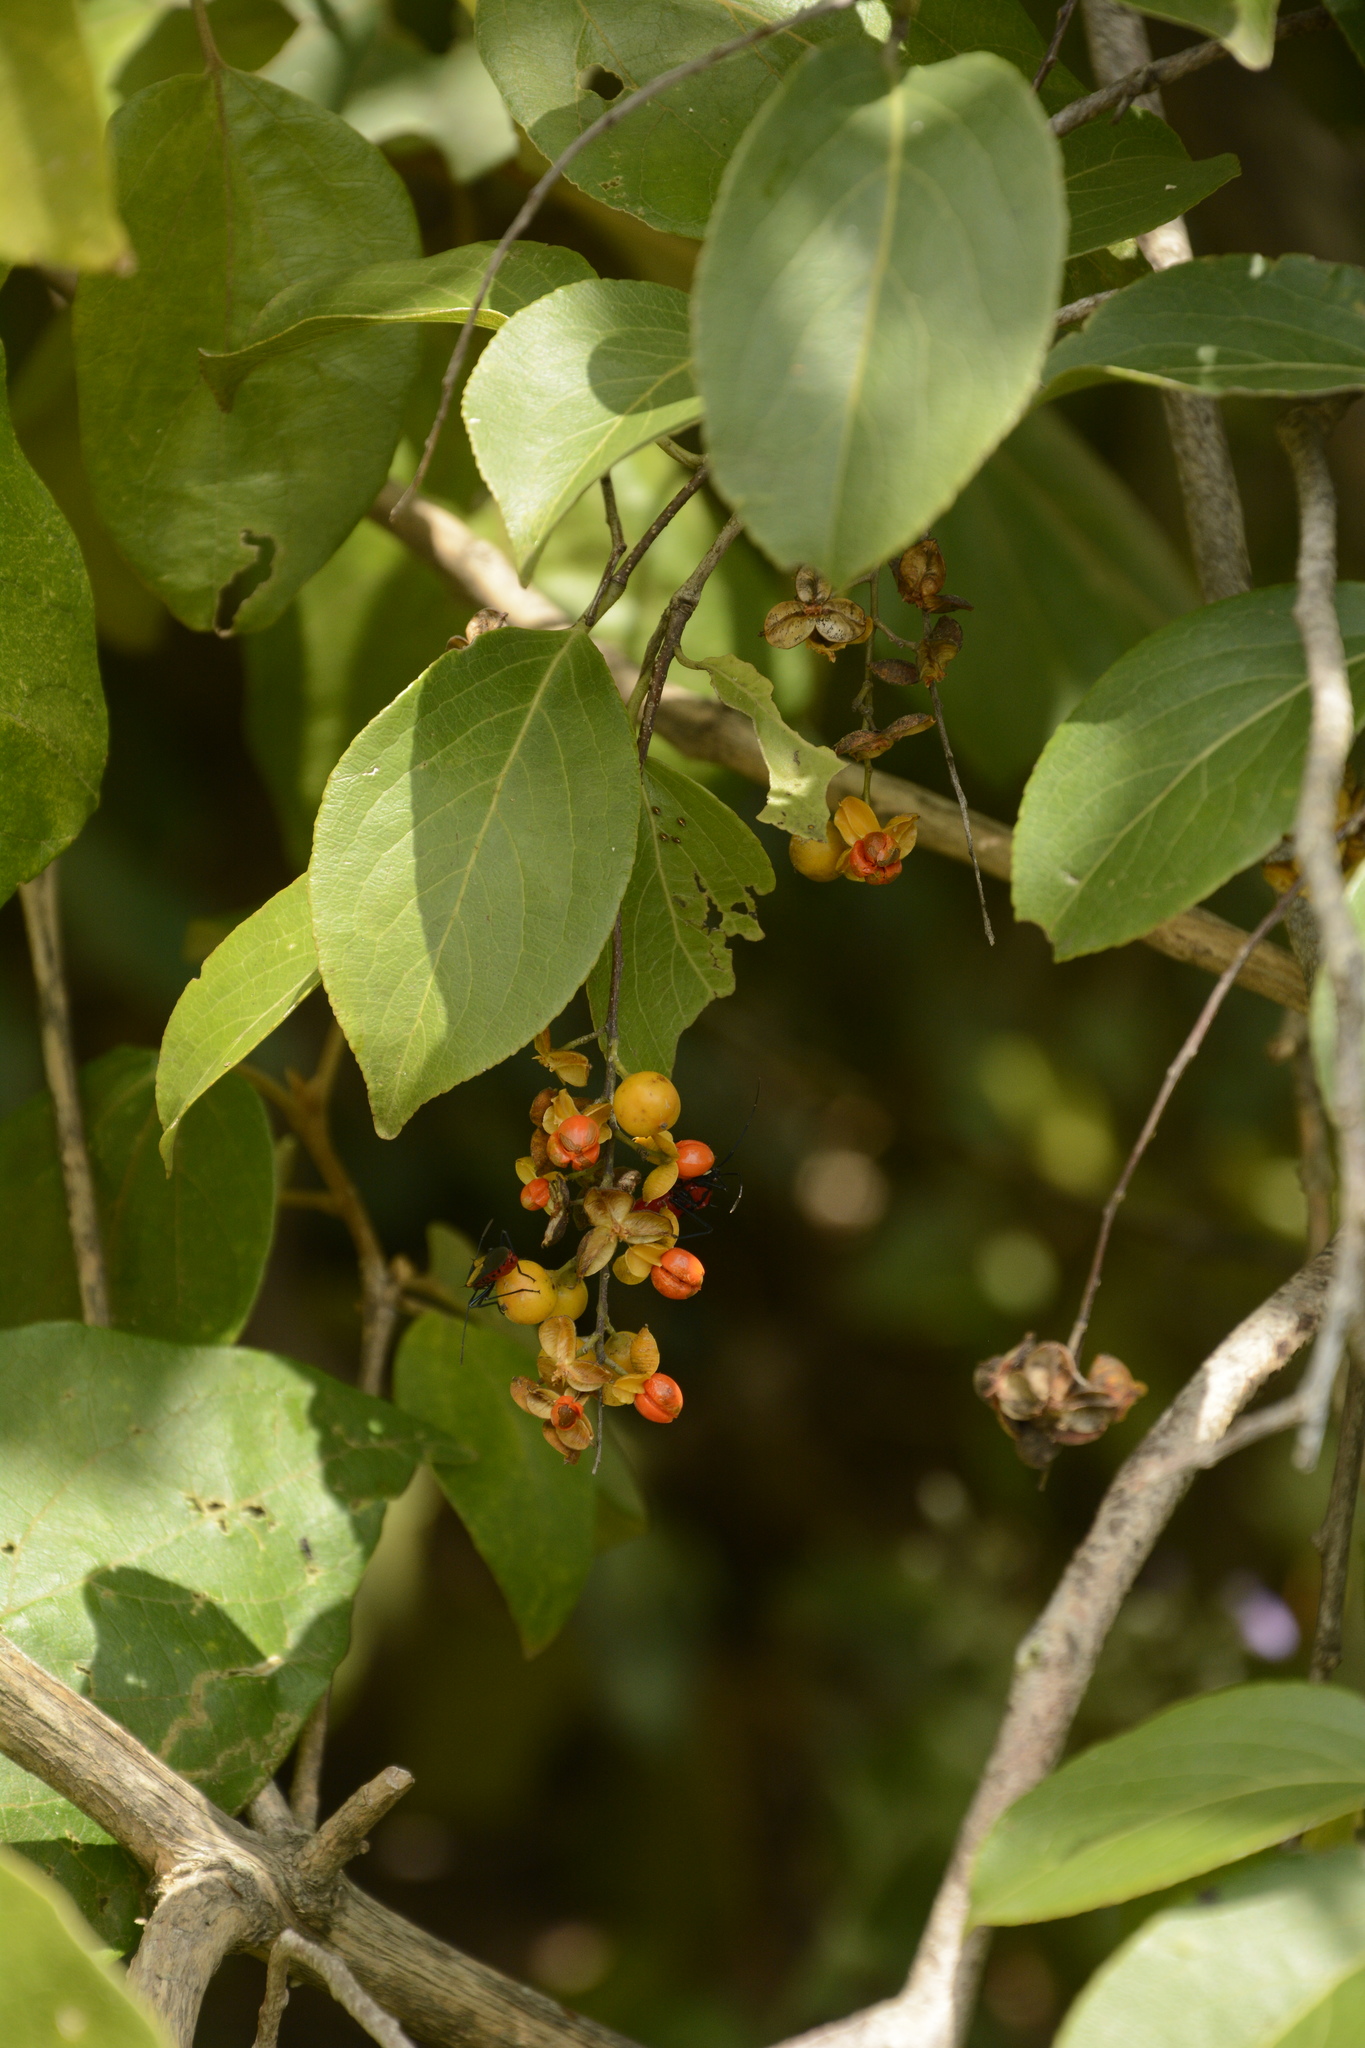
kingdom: Plantae
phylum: Tracheophyta
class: Magnoliopsida
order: Celastrales
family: Celastraceae
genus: Celastrus
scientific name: Celastrus paniculatus
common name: Oriental bittersweet; staff vine
